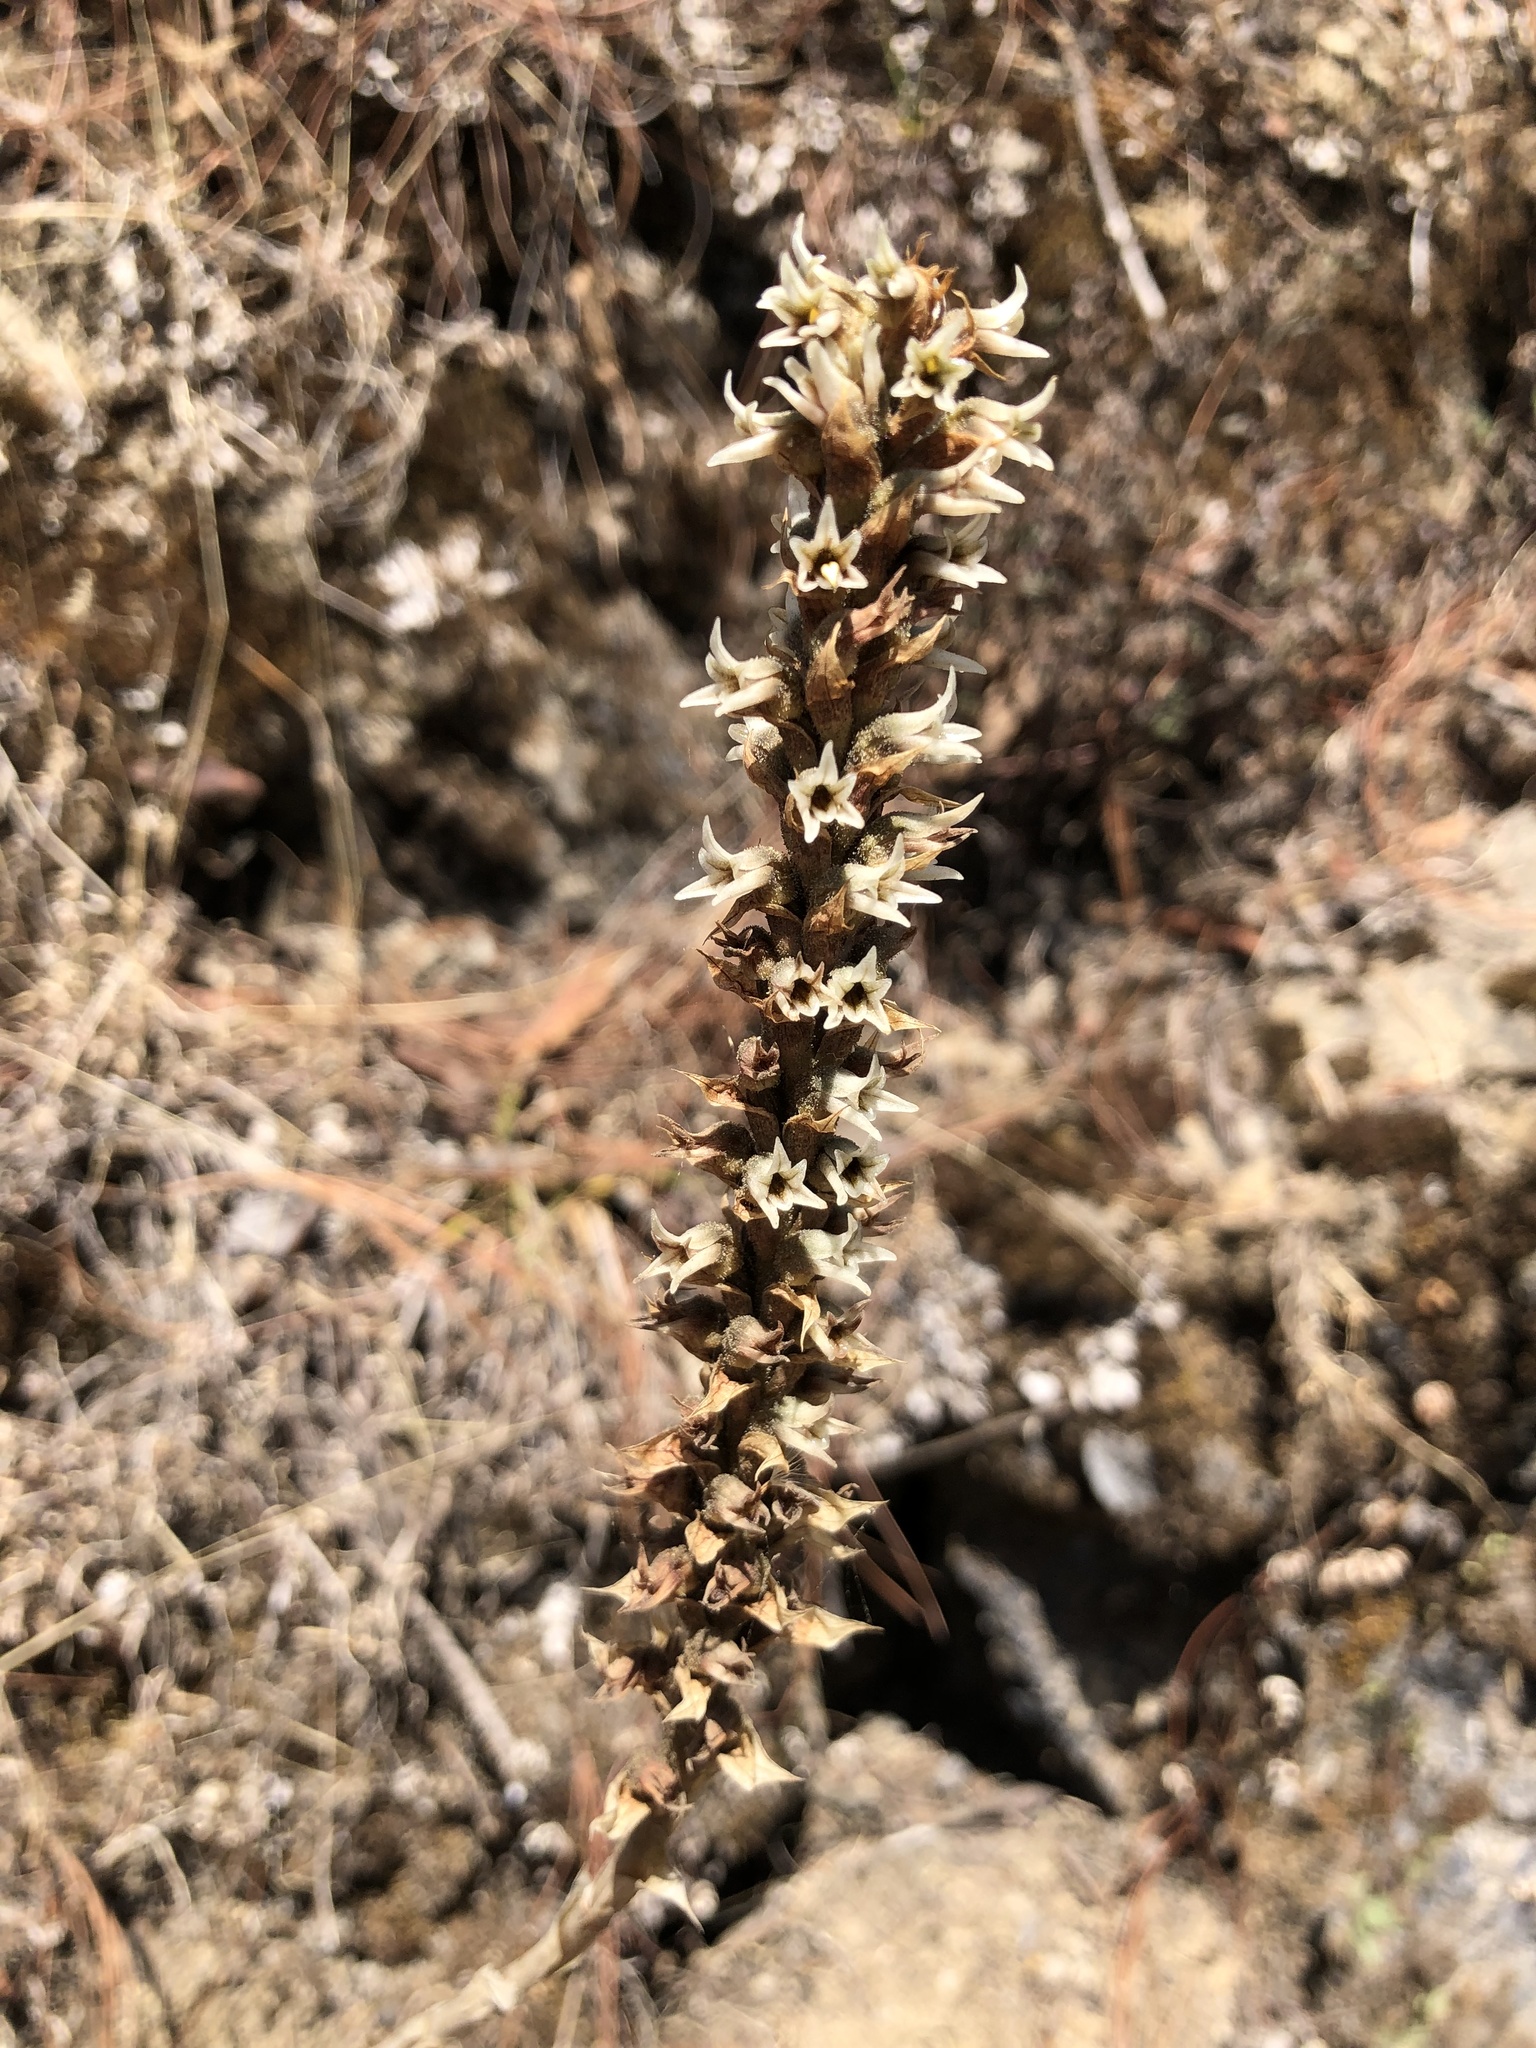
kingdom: Plantae
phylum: Tracheophyta
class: Liliopsida
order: Asparagales
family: Orchidaceae
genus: Aulosepalum
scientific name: Aulosepalum pyramidale
